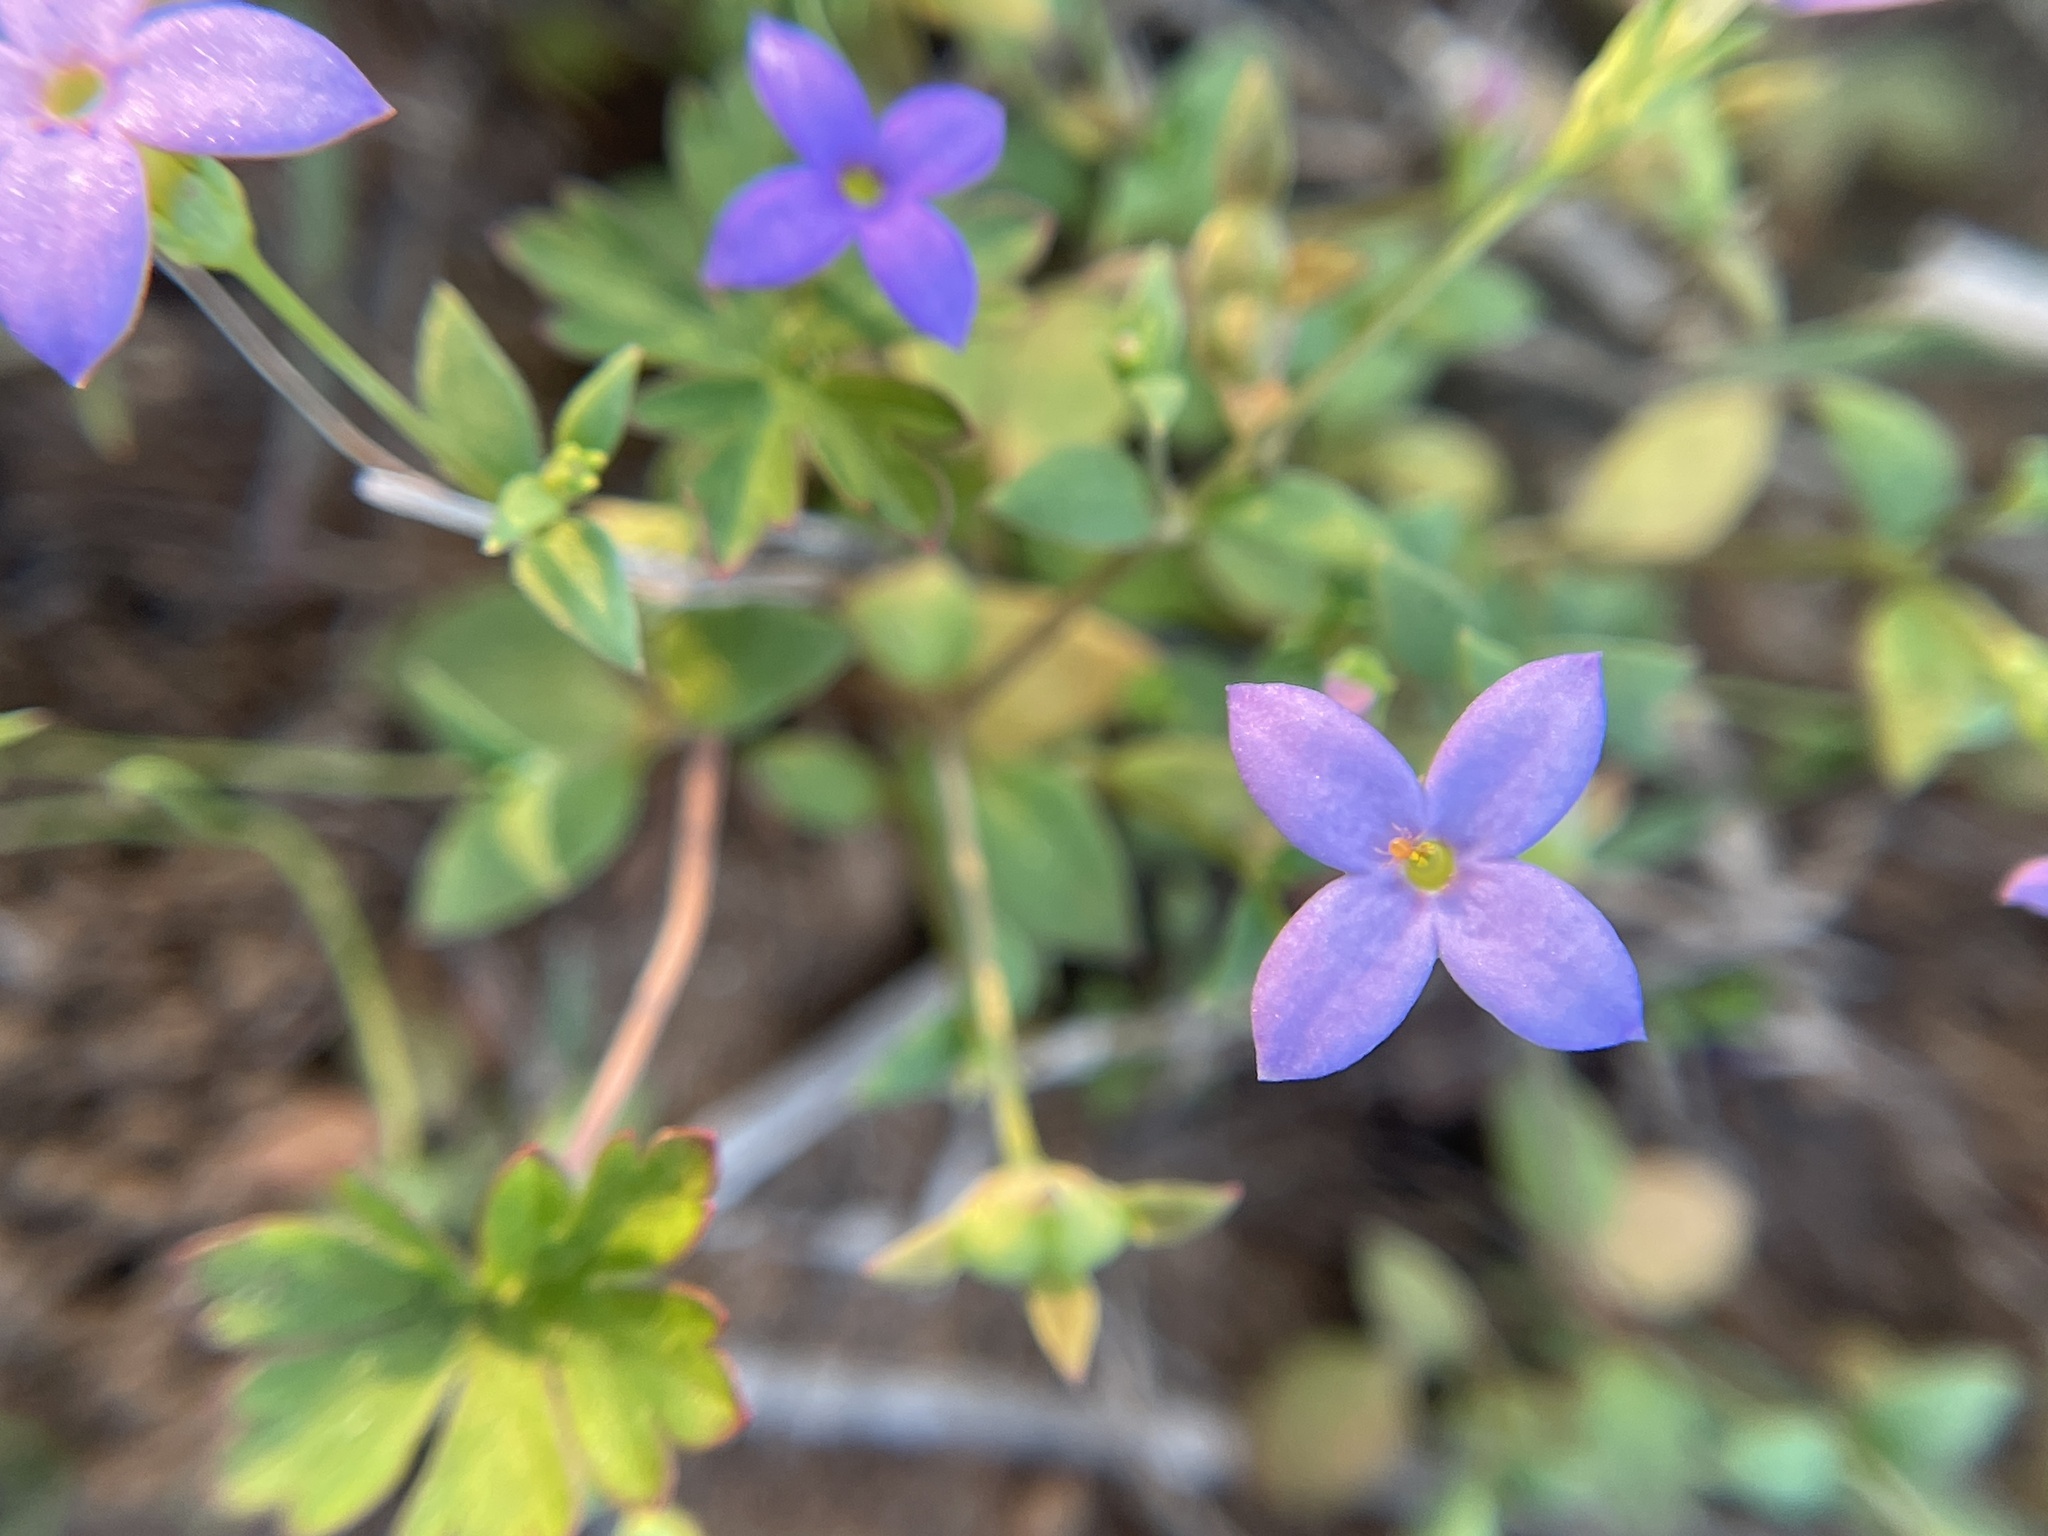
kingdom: Plantae
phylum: Tracheophyta
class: Magnoliopsida
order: Gentianales
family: Rubiaceae
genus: Houstonia
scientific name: Houstonia pusilla
